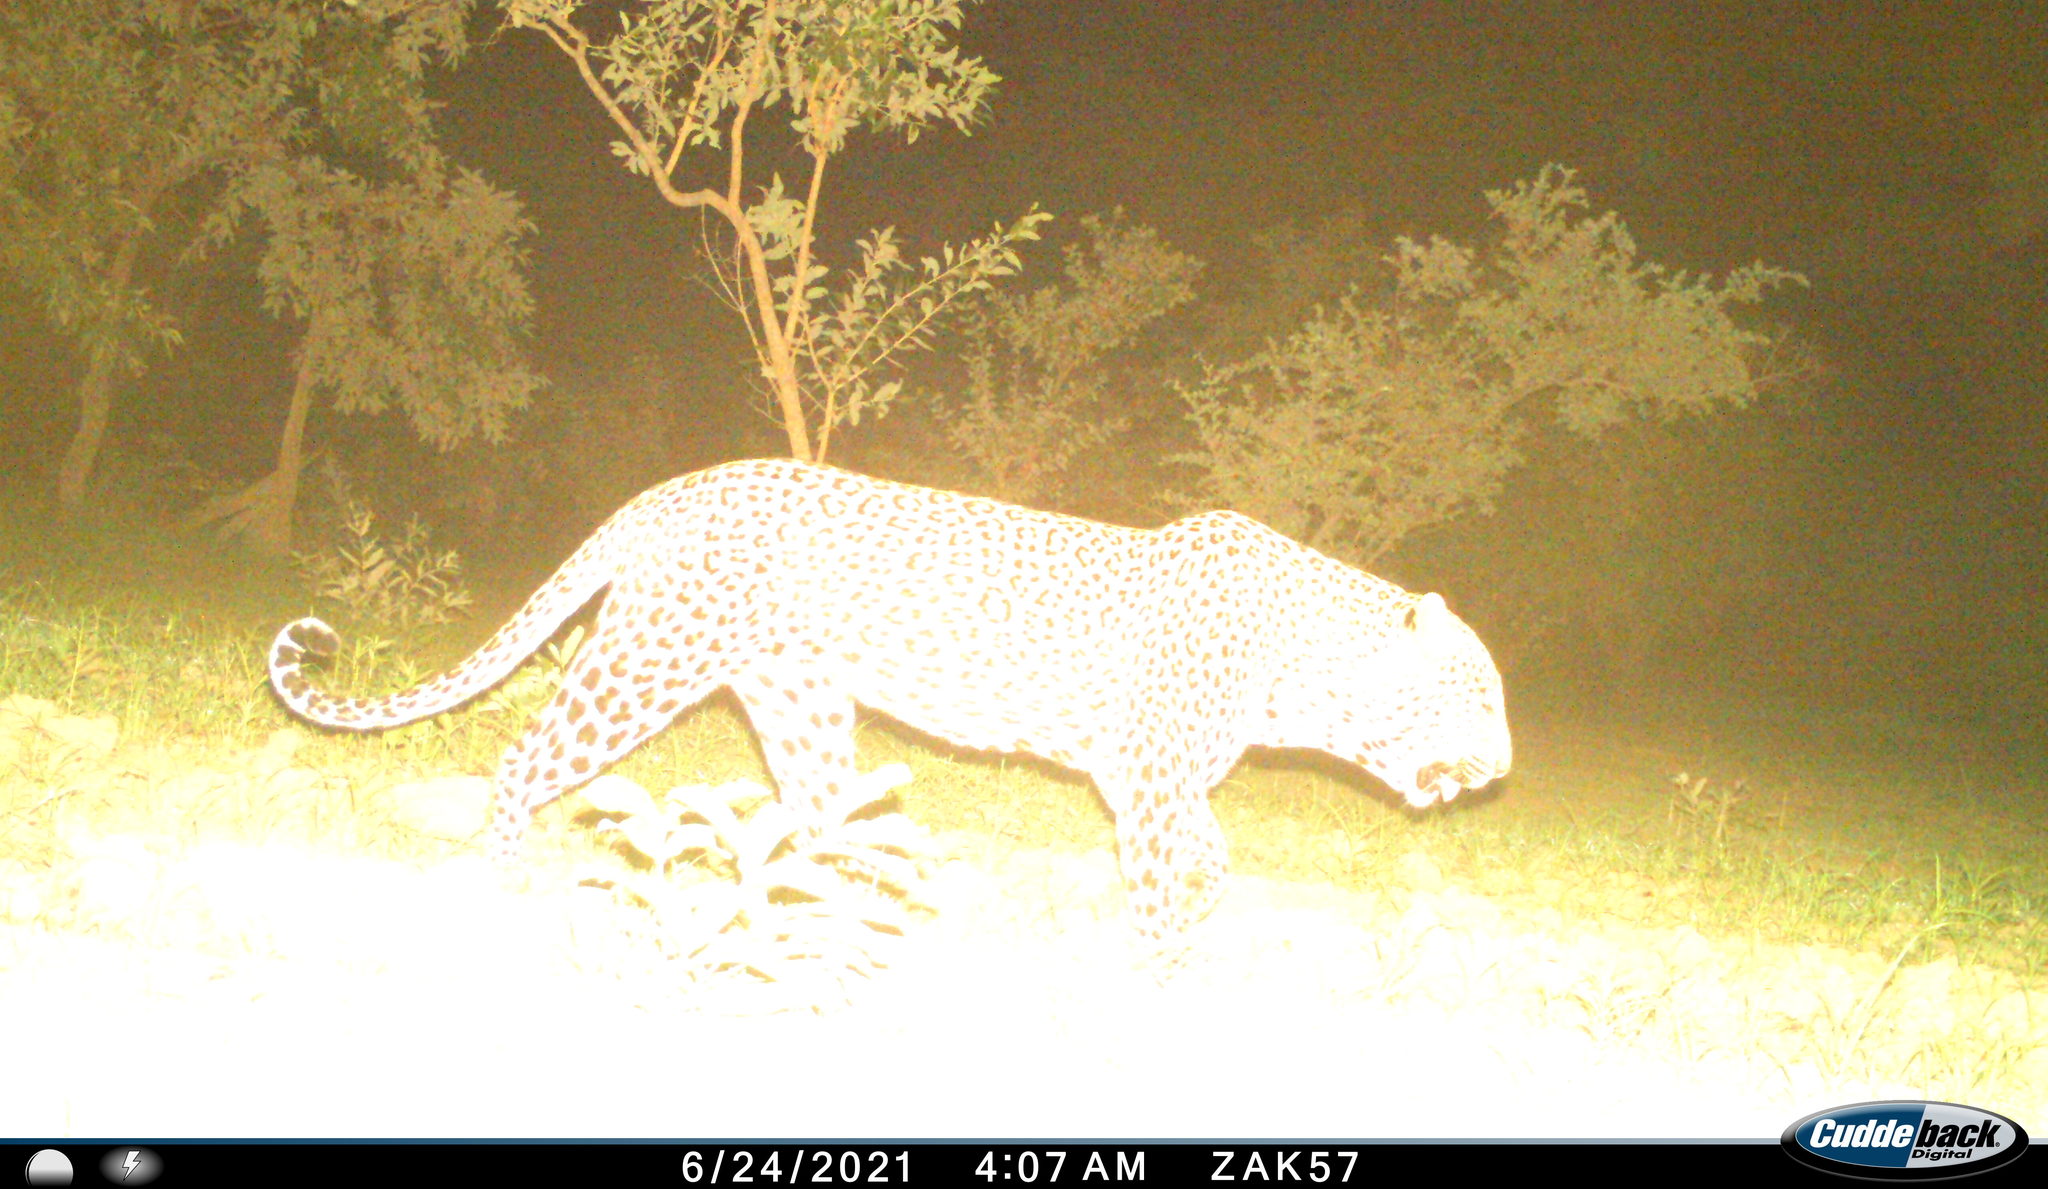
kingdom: Animalia
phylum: Chordata
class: Mammalia
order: Carnivora
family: Felidae
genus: Panthera
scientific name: Panthera pardus
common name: Leopard
